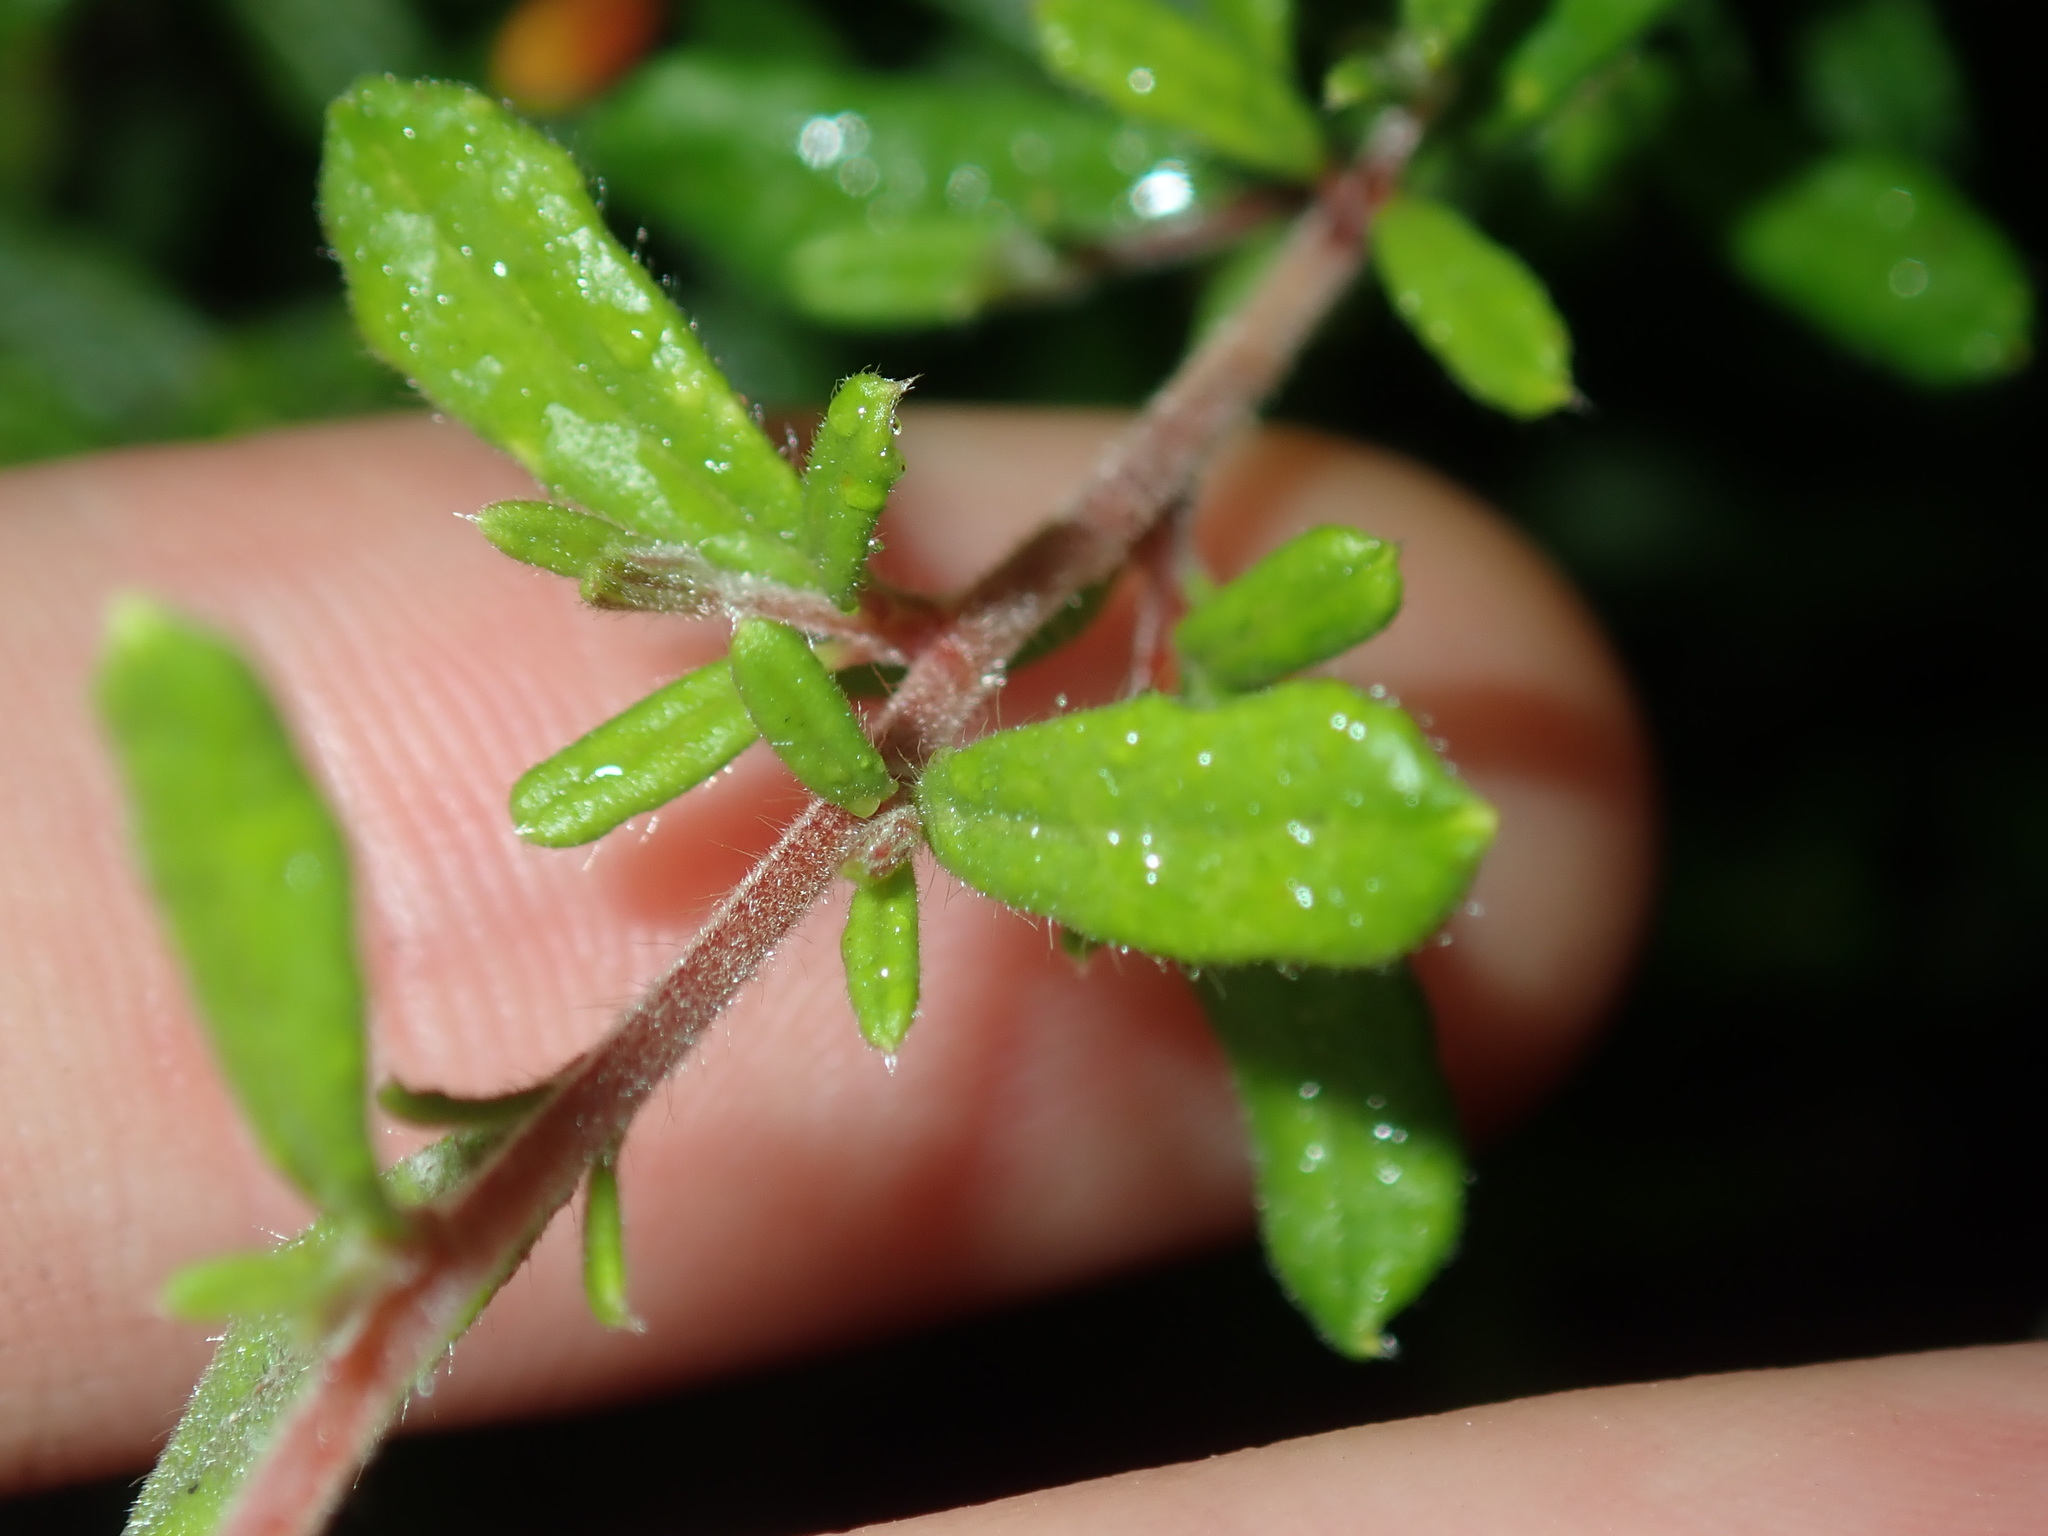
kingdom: Plantae
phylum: Tracheophyta
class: Magnoliopsida
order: Dilleniales
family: Dilleniaceae
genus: Hibbertia
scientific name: Hibbertia aspera
